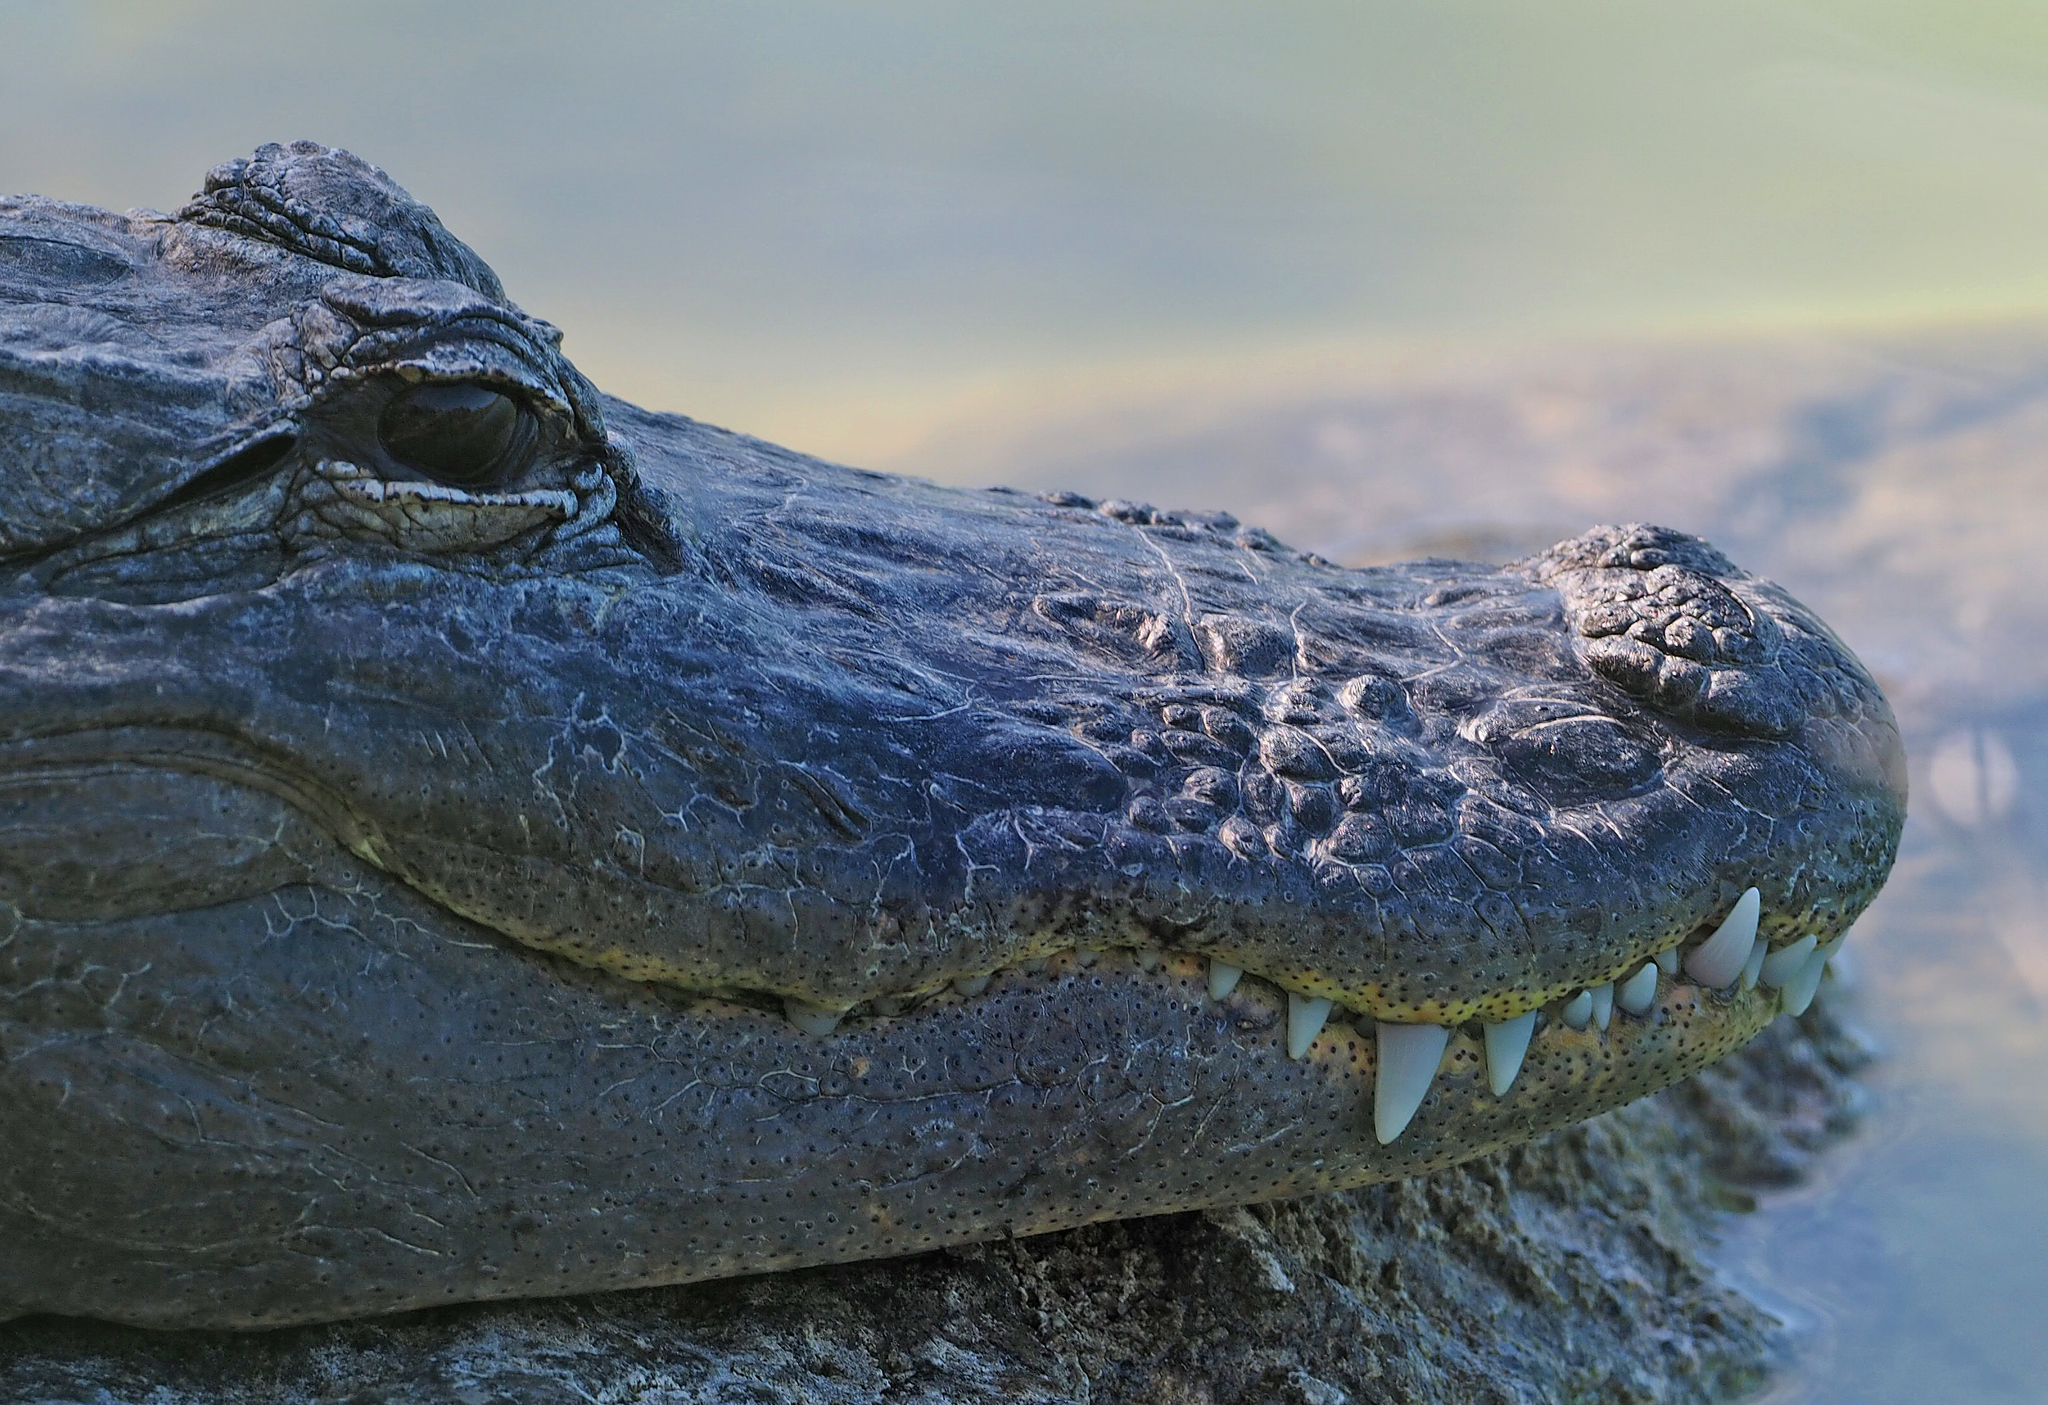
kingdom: Animalia
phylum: Chordata
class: Crocodylia
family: Alligatoridae
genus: Alligator
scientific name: Alligator mississippiensis
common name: American alligator
